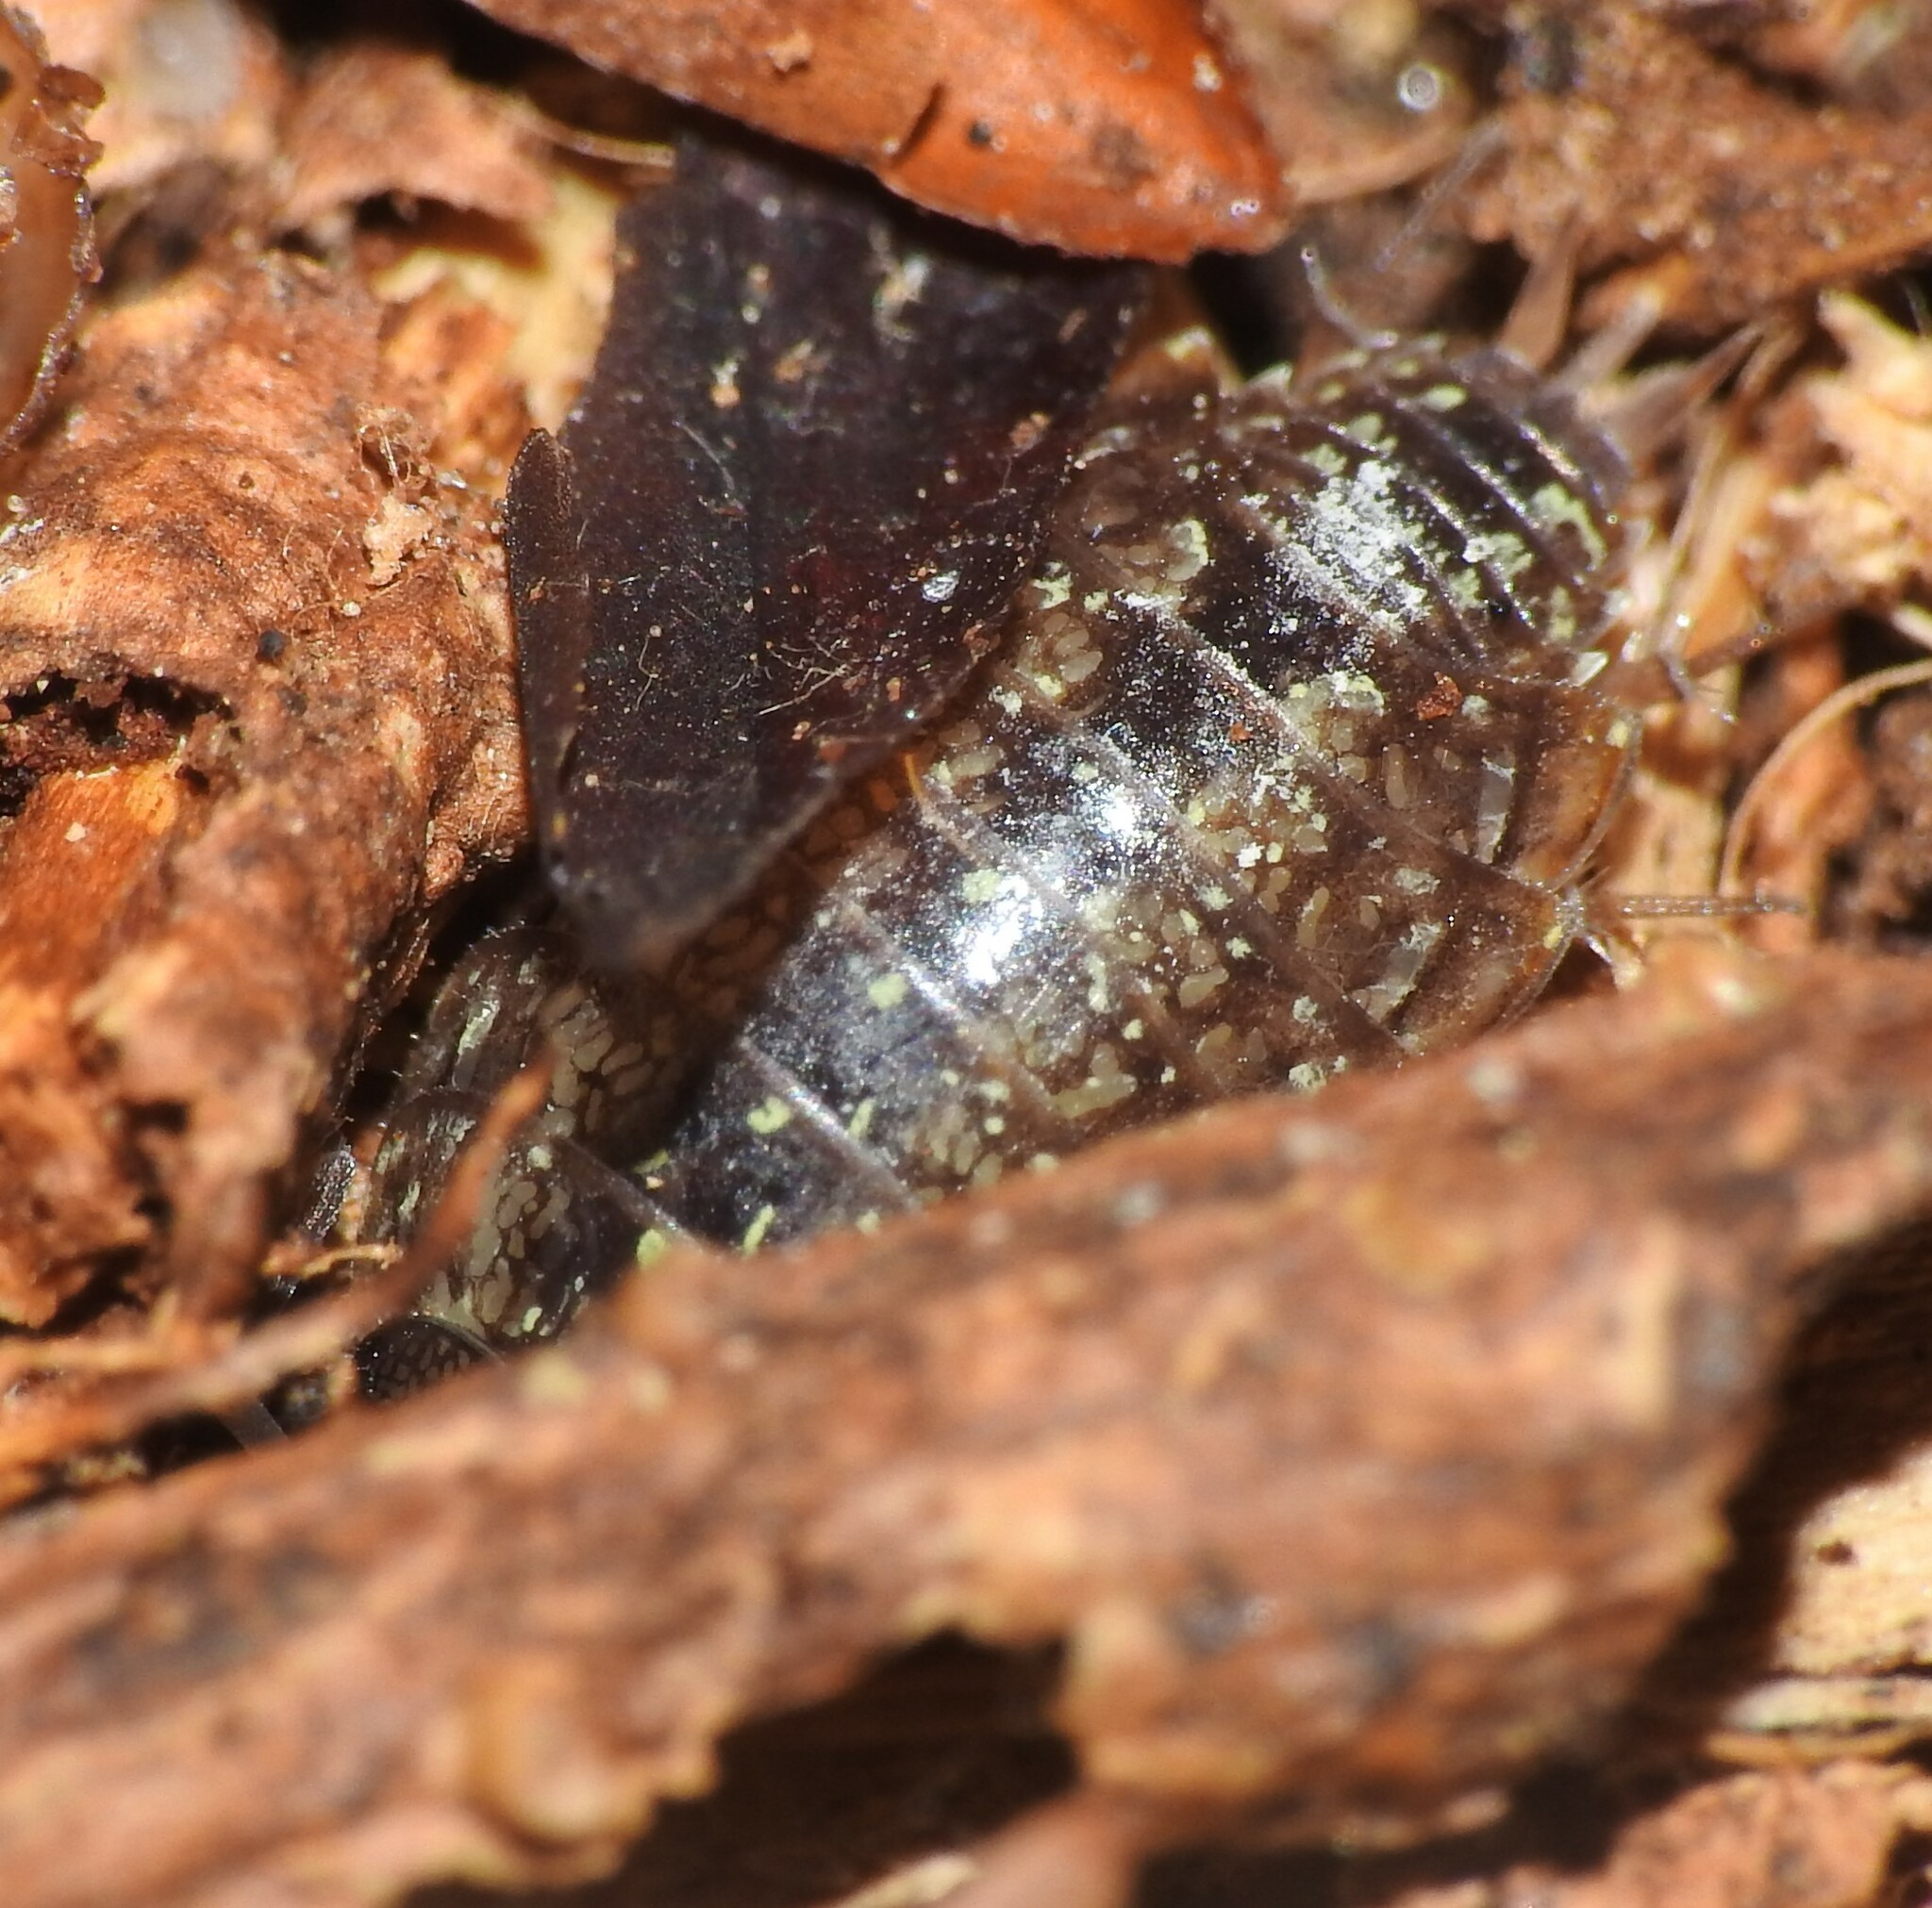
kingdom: Animalia
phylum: Arthropoda
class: Malacostraca
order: Isopoda
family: Philosciidae
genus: Philoscia
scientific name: Philoscia affinis
